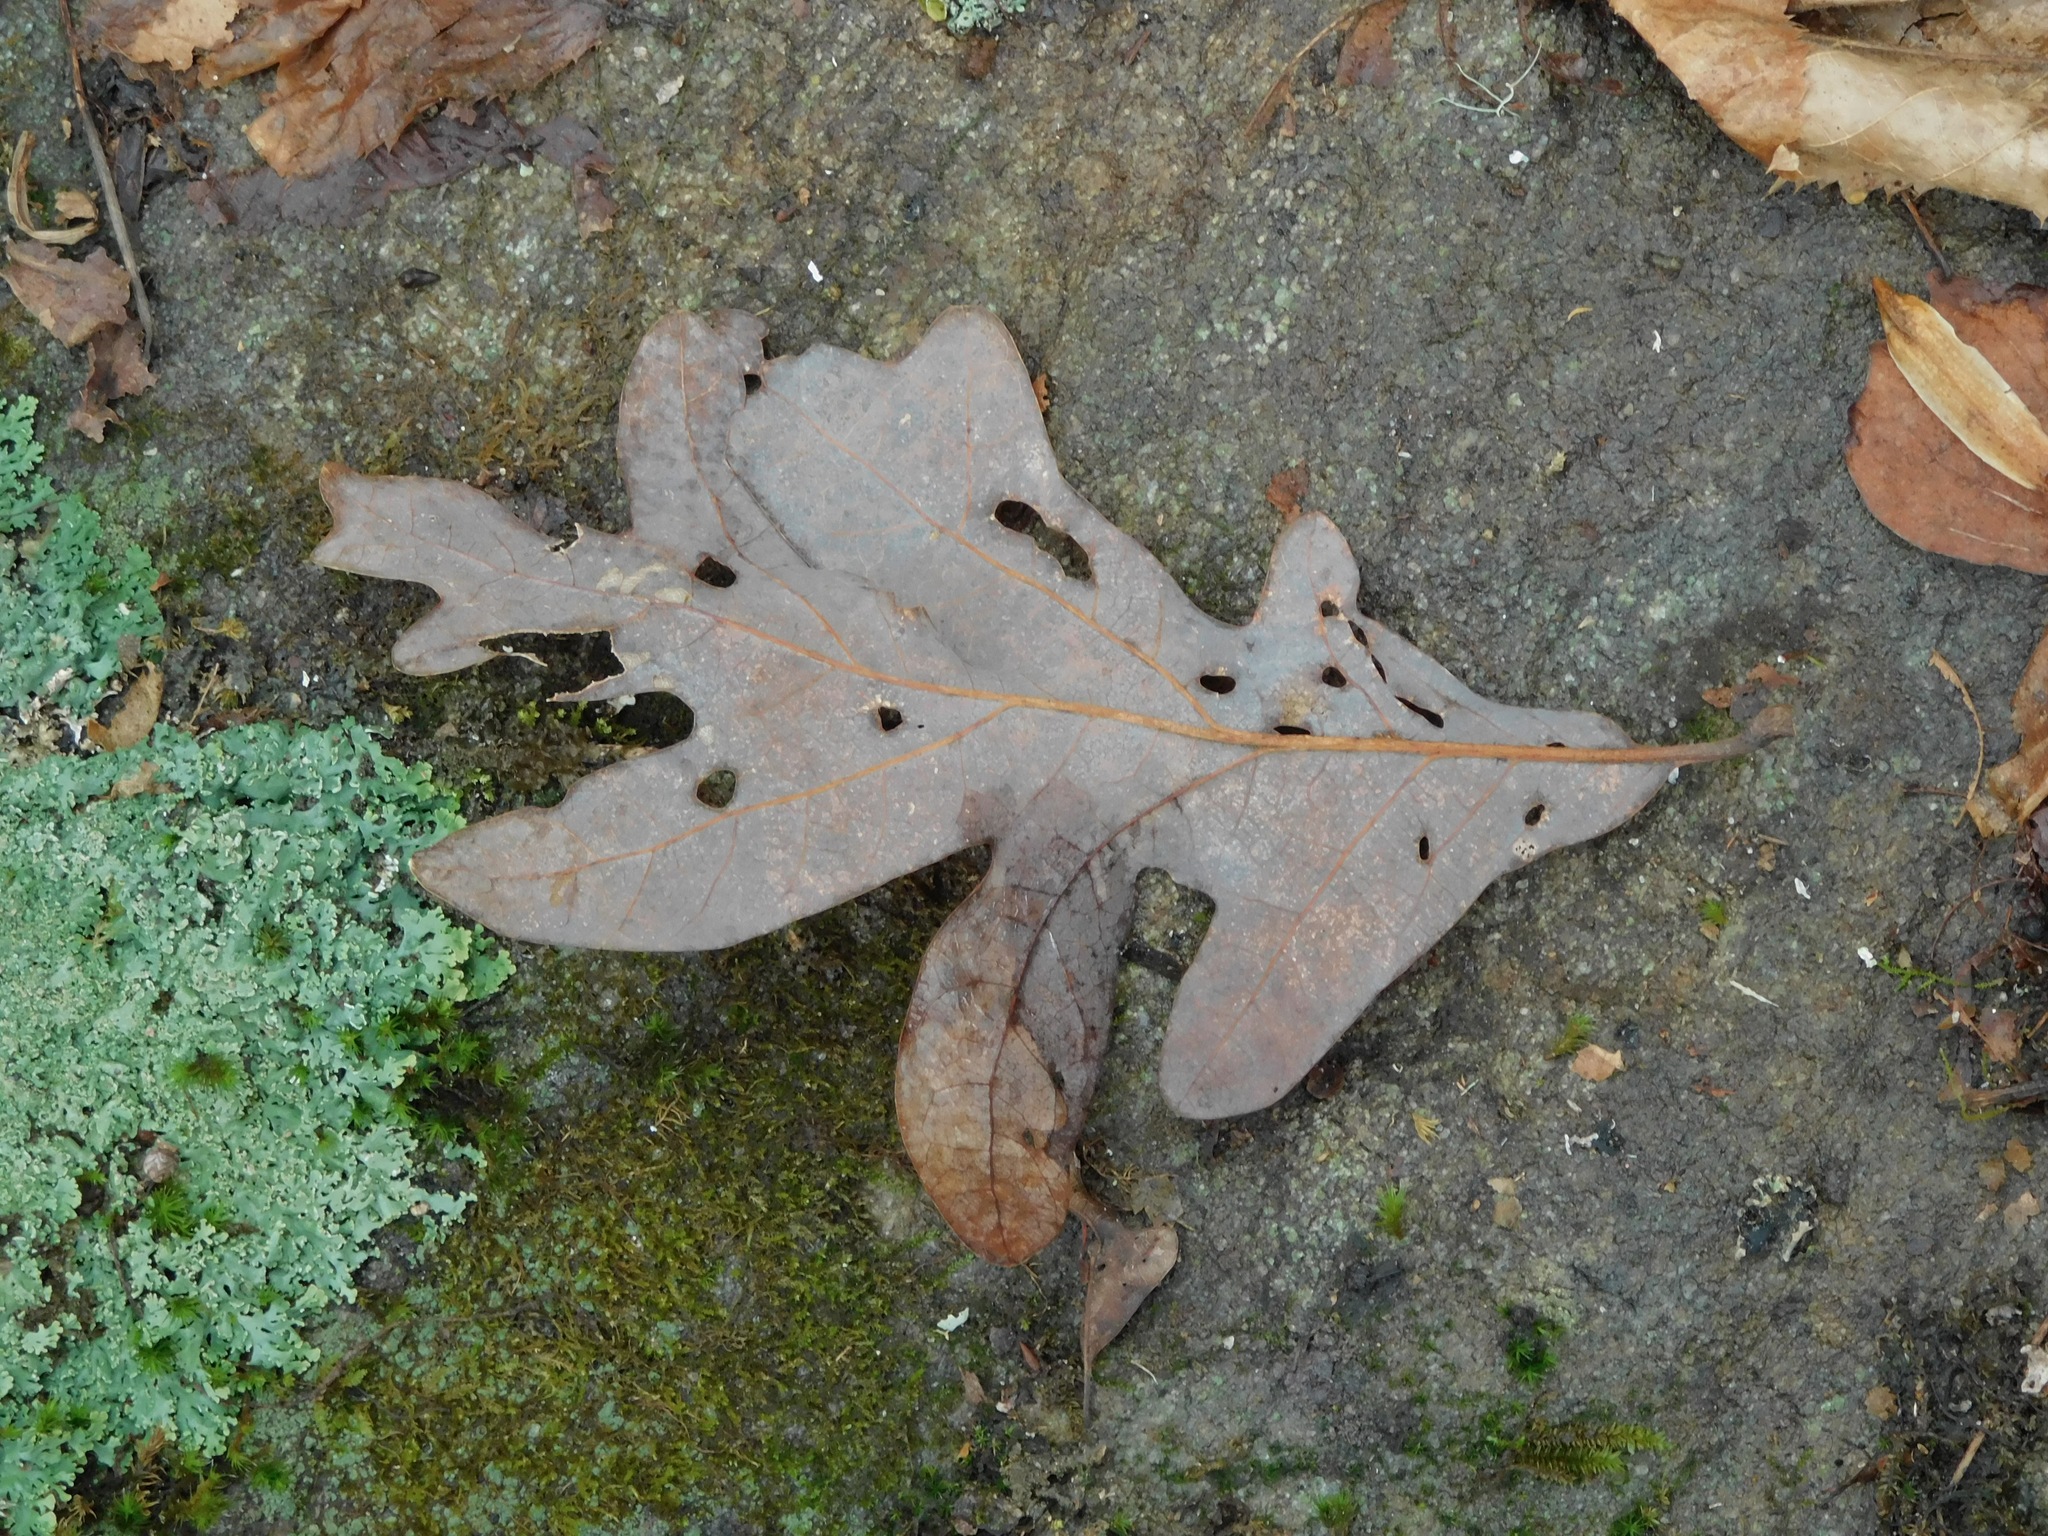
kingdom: Plantae
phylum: Tracheophyta
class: Magnoliopsida
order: Fagales
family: Fagaceae
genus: Quercus
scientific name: Quercus alba
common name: White oak
